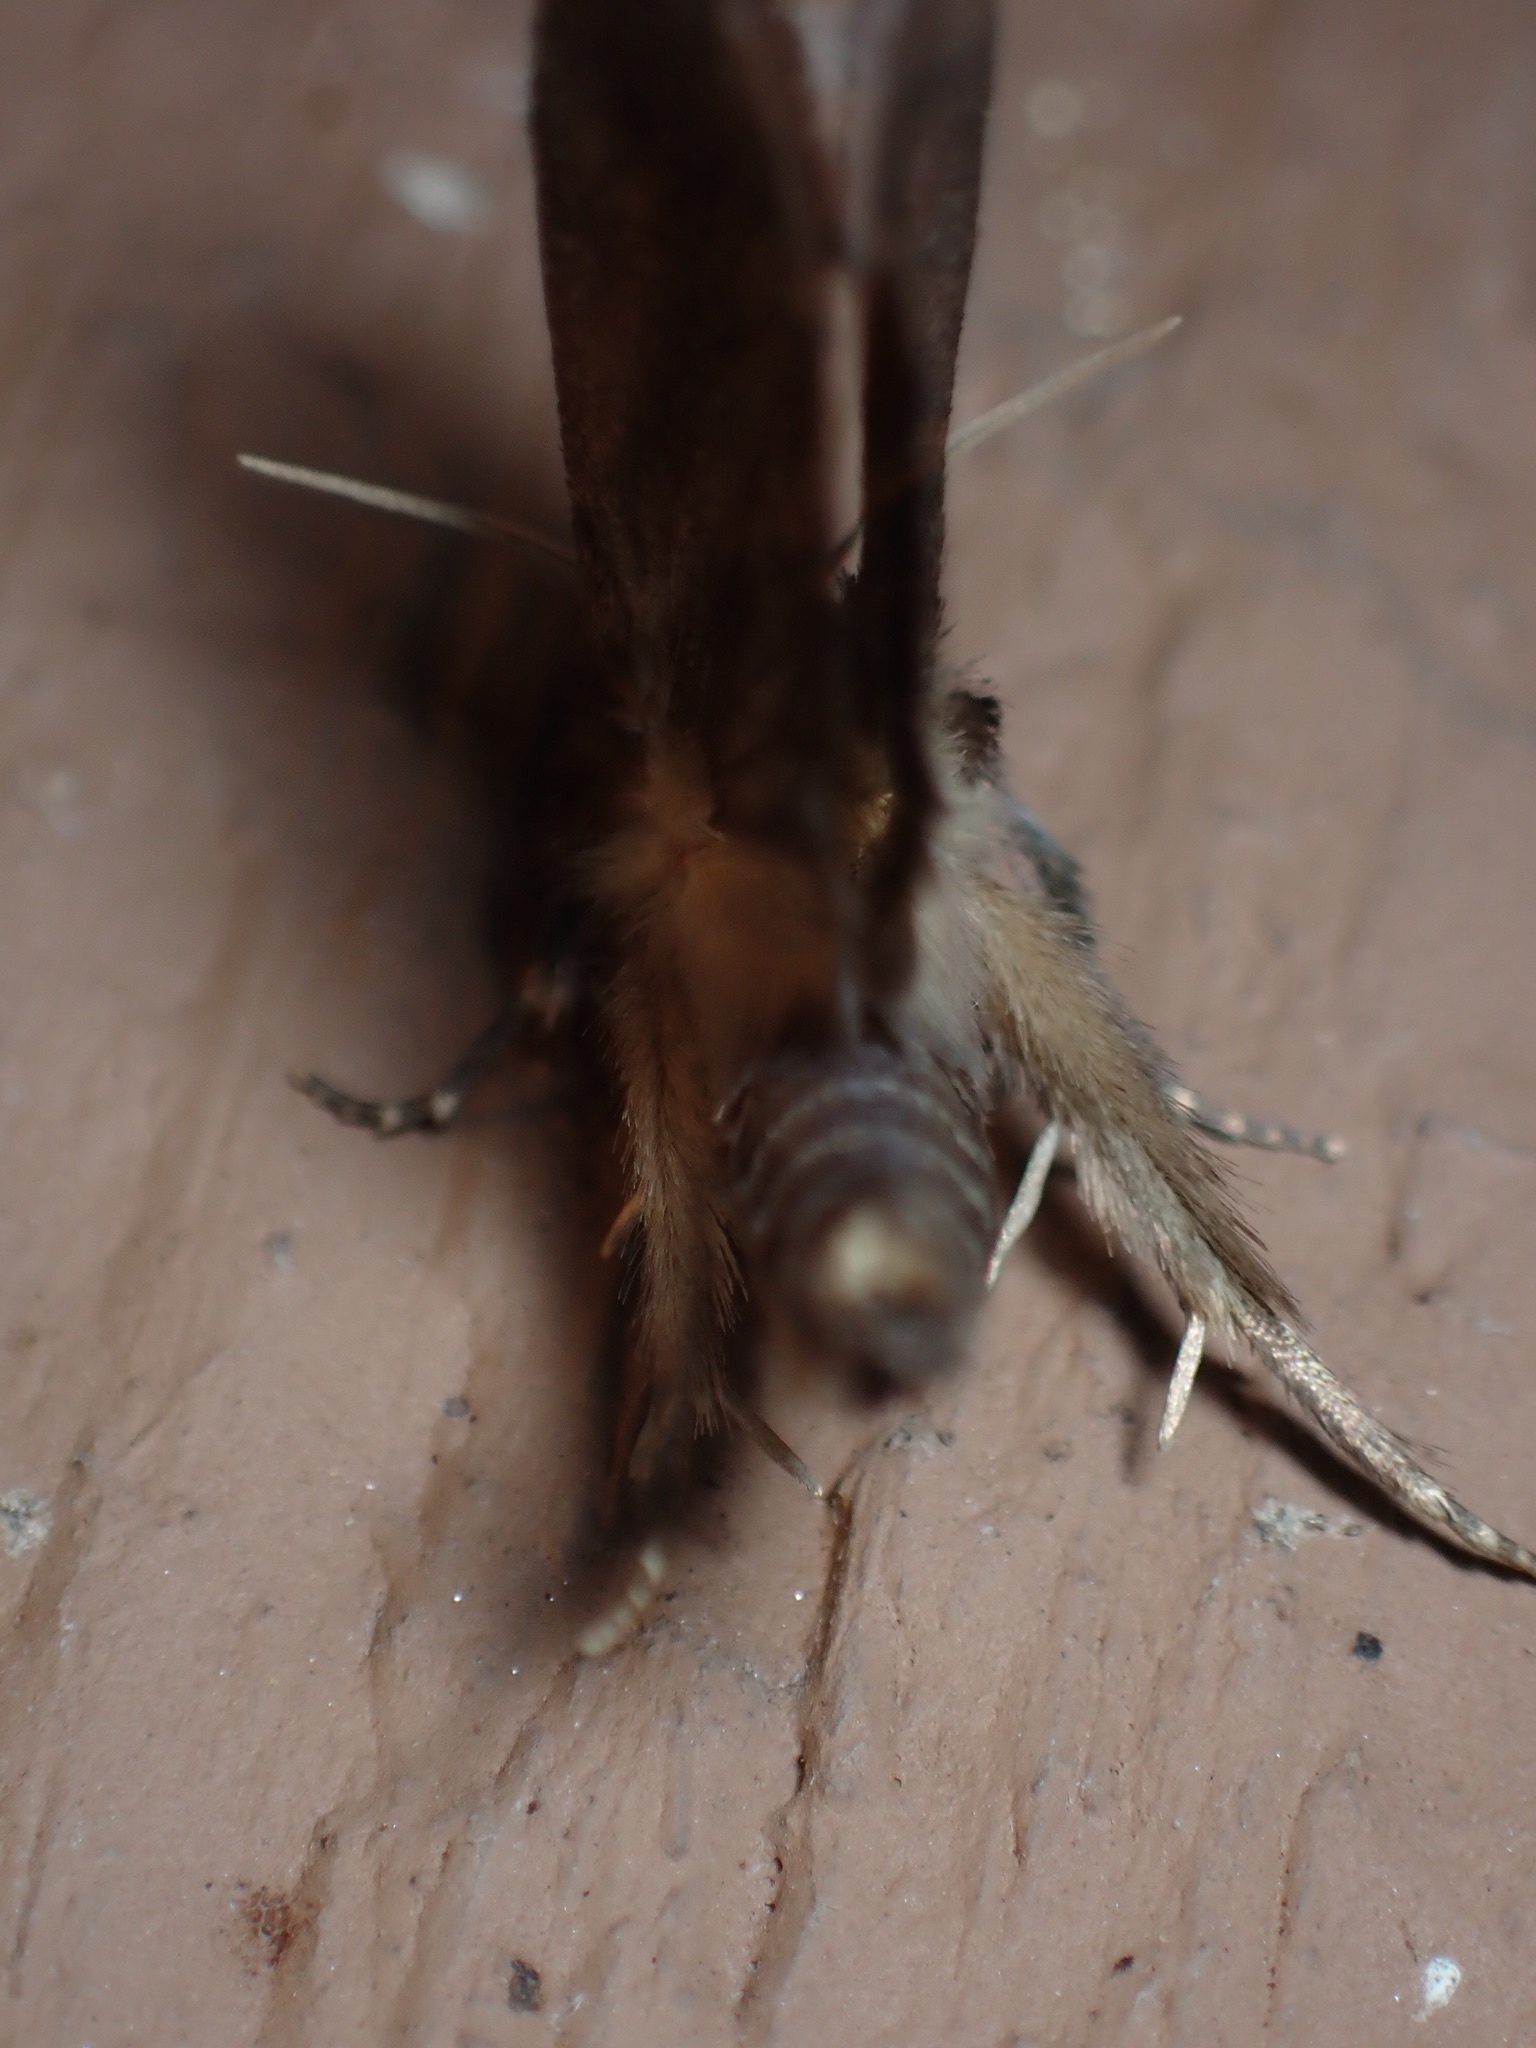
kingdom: Animalia
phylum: Arthropoda
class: Insecta
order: Lepidoptera
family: Tineidae
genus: Acrolophus
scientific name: Acrolophus popeanella
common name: Clemens' grass tubeworm moth
